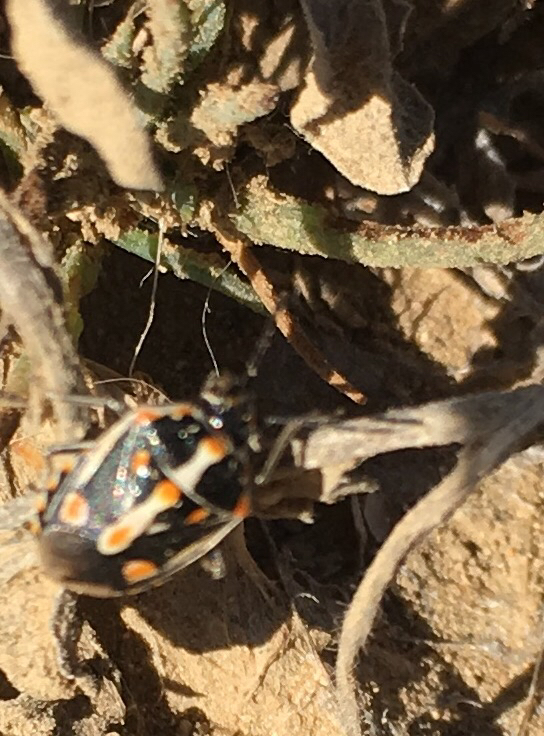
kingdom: Animalia
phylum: Arthropoda
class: Insecta
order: Hemiptera
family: Pentatomidae
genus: Bagrada
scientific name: Bagrada hilaris
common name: Bagrada bug
